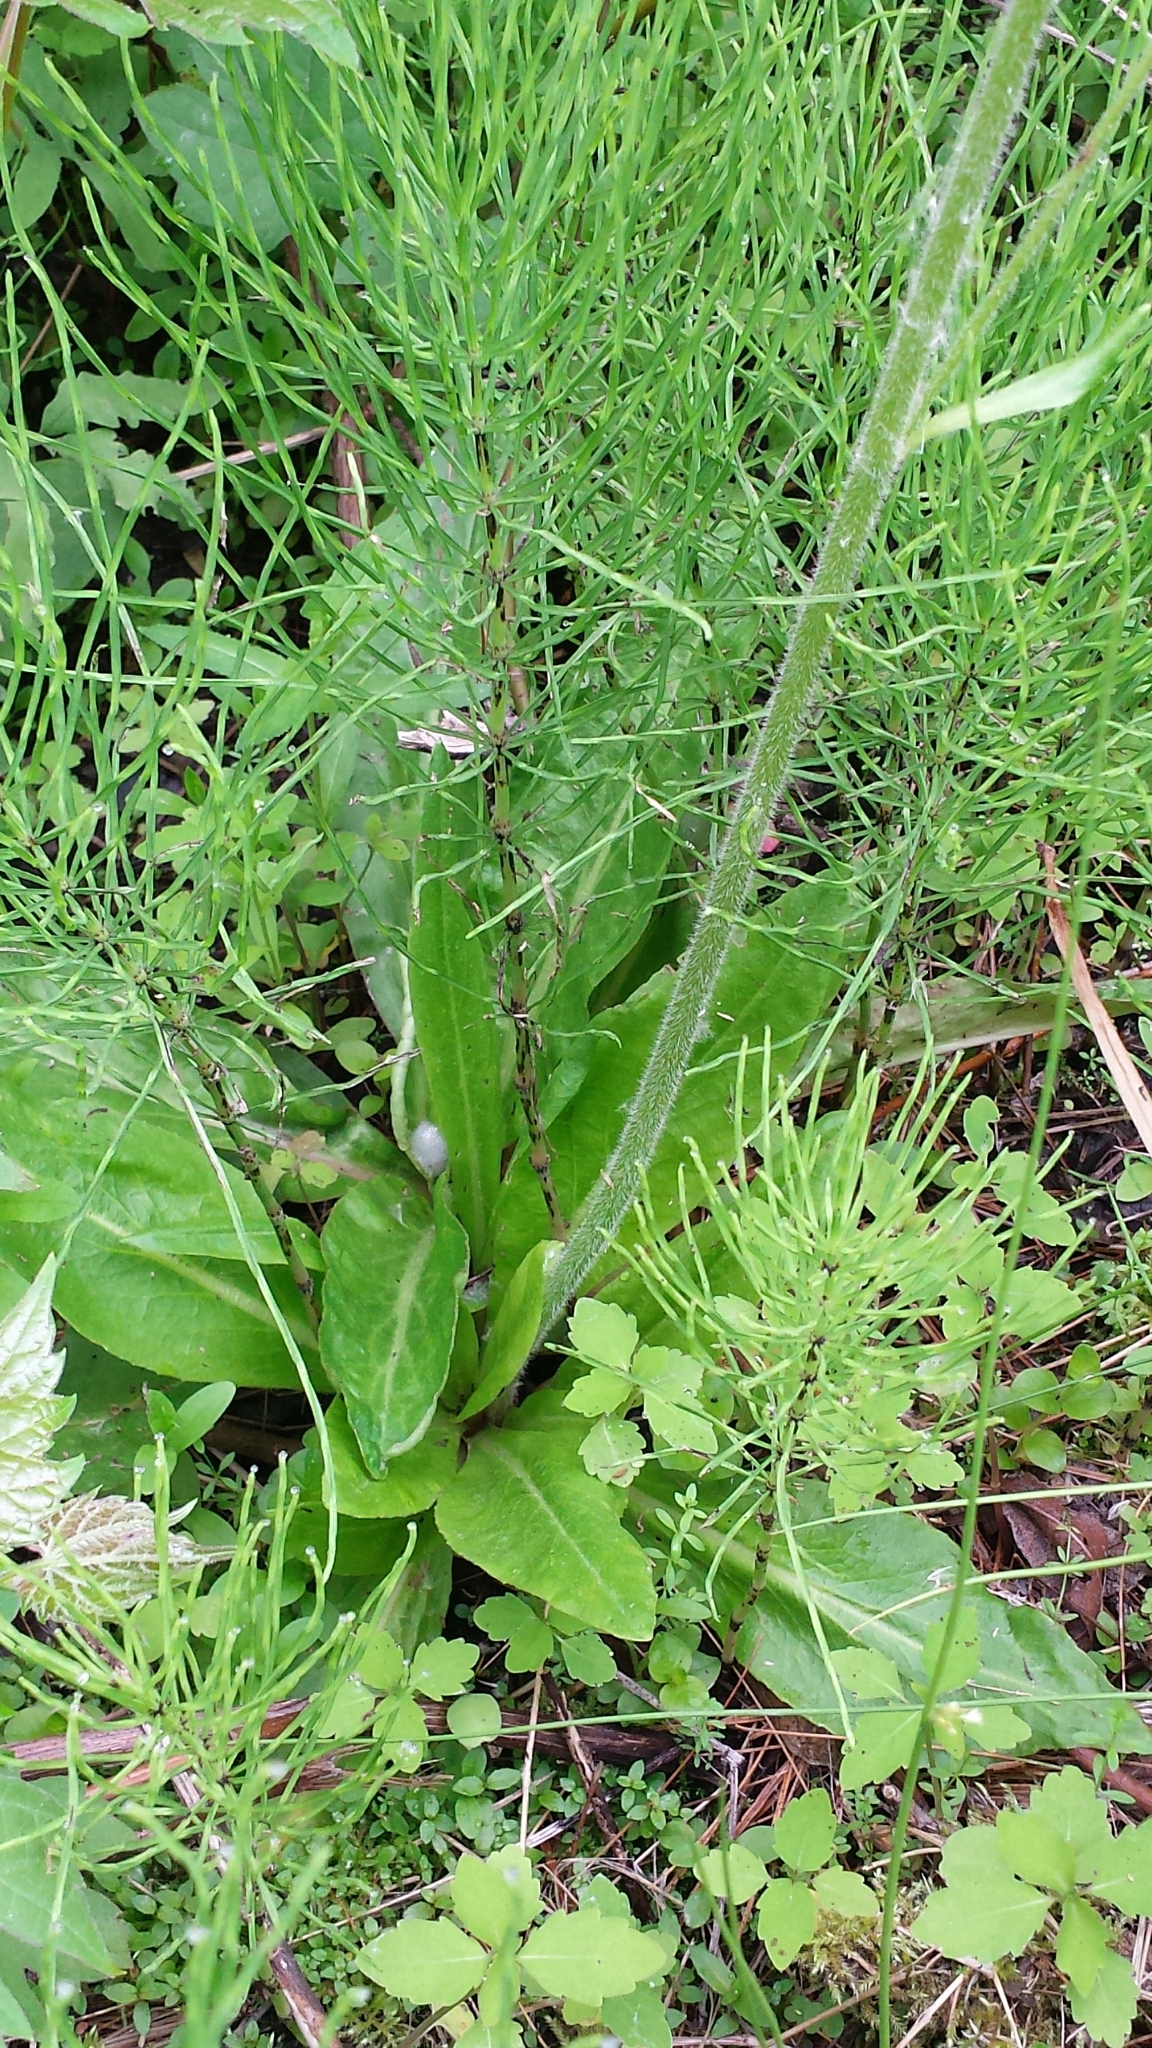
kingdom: Plantae
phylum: Tracheophyta
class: Magnoliopsida
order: Saxifragales
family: Saxifragaceae
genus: Micranthes
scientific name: Micranthes pensylvanica
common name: Marsh saxifrage
